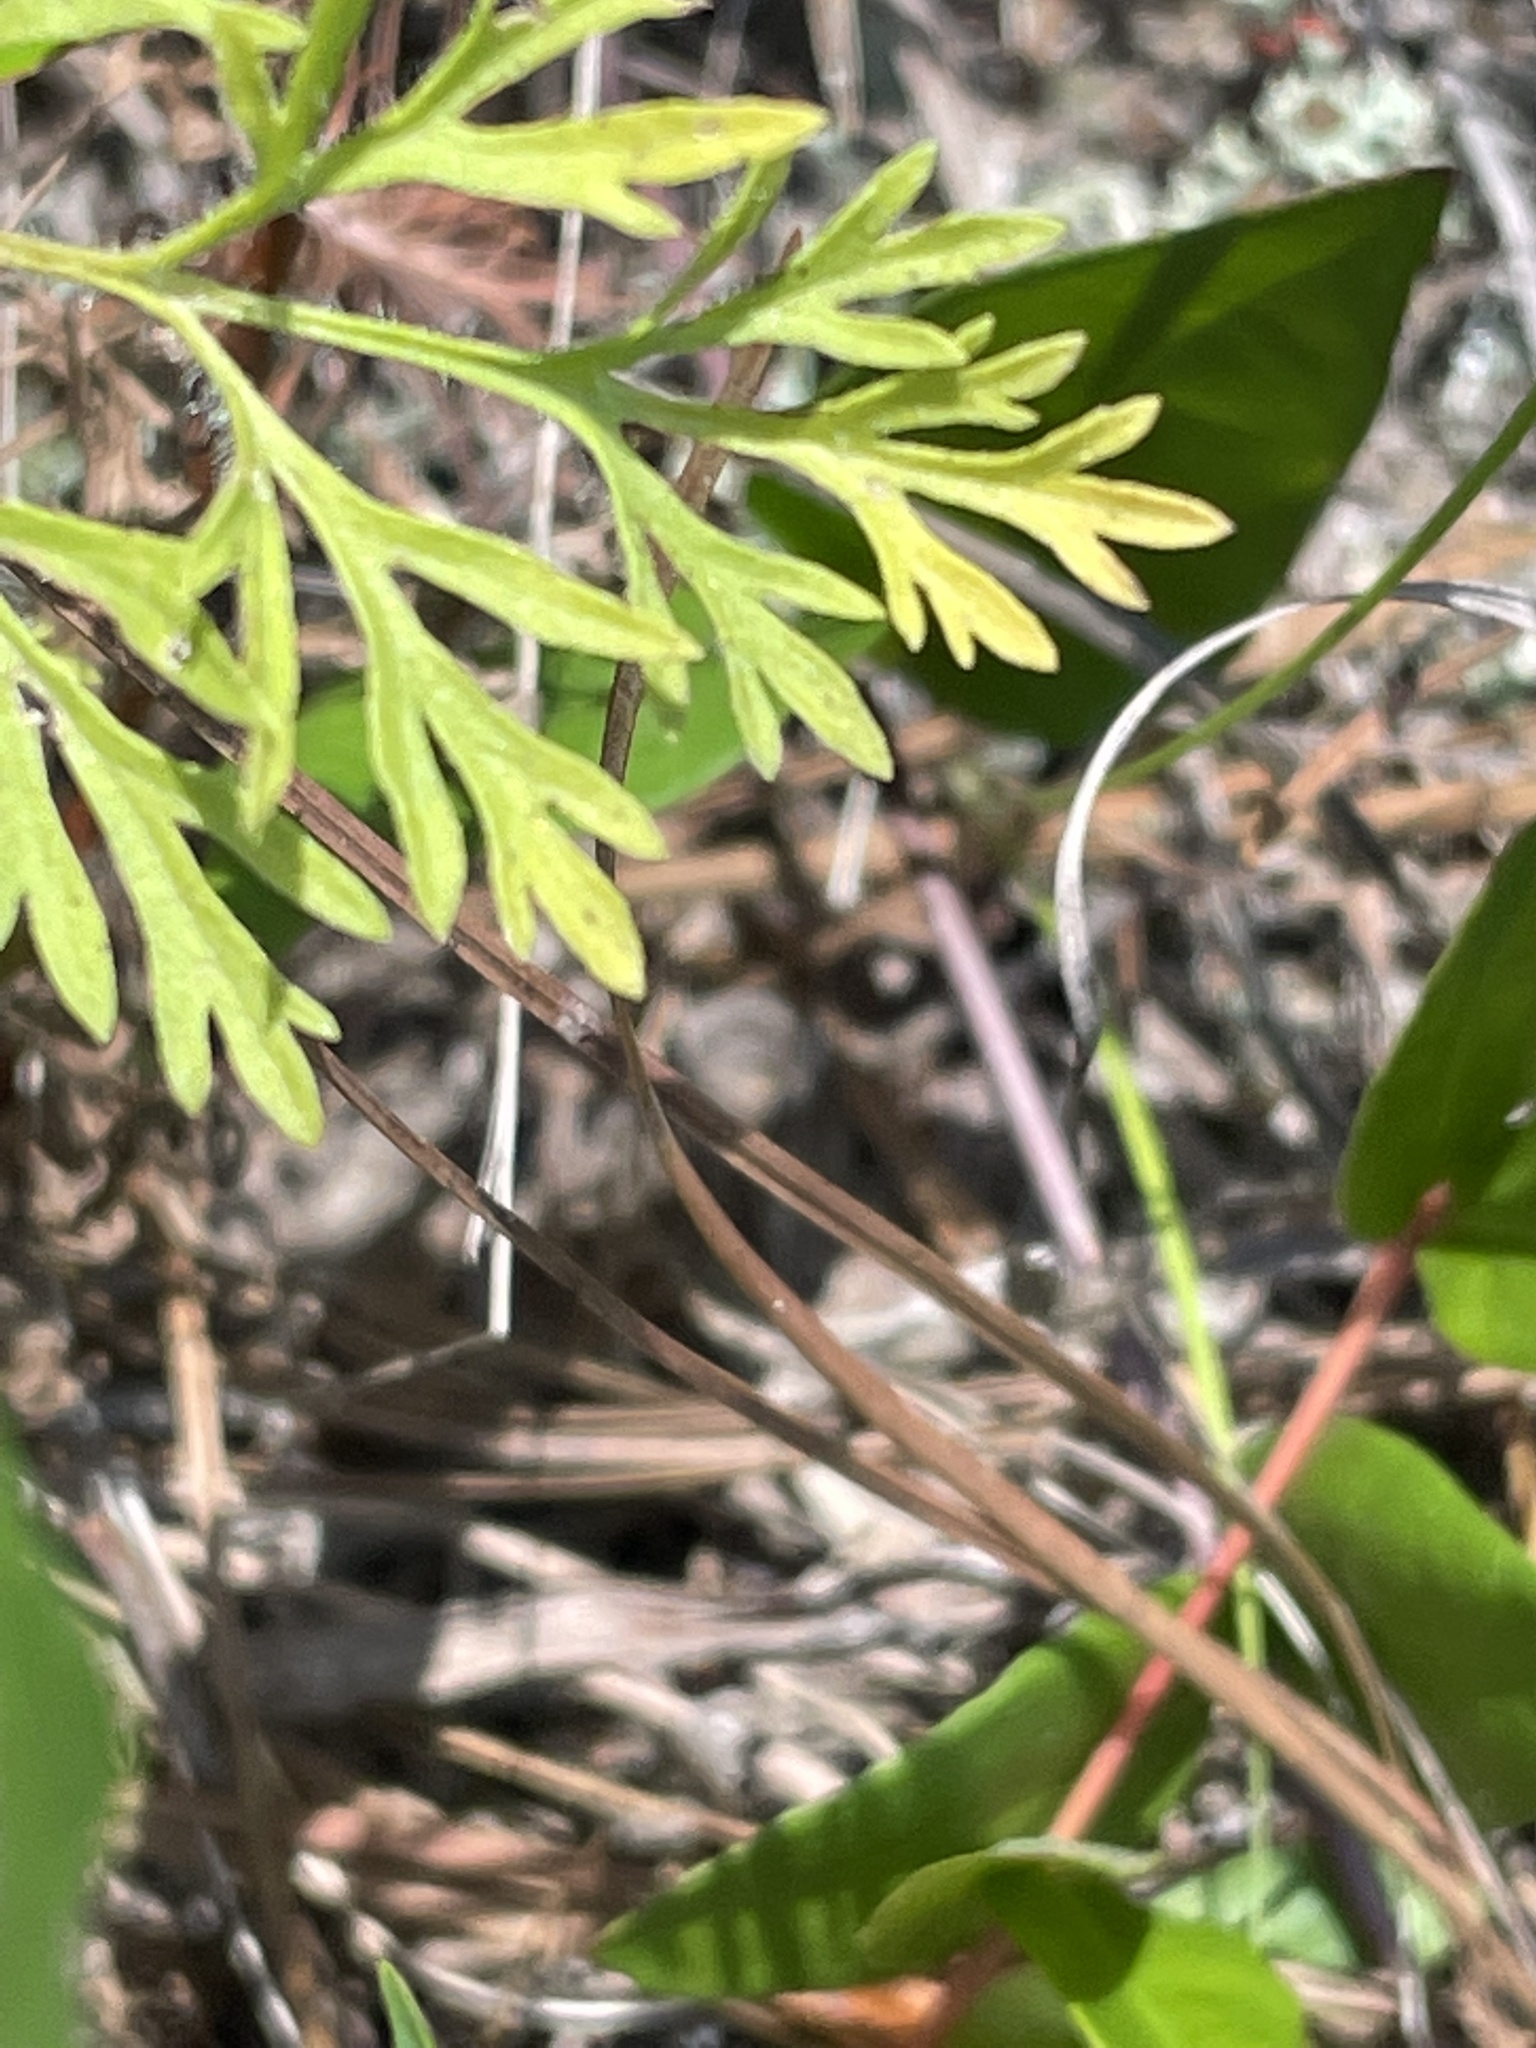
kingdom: Plantae
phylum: Tracheophyta
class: Magnoliopsida
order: Asterales
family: Asteraceae
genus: Eupatorium
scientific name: Eupatorium compositifolium
